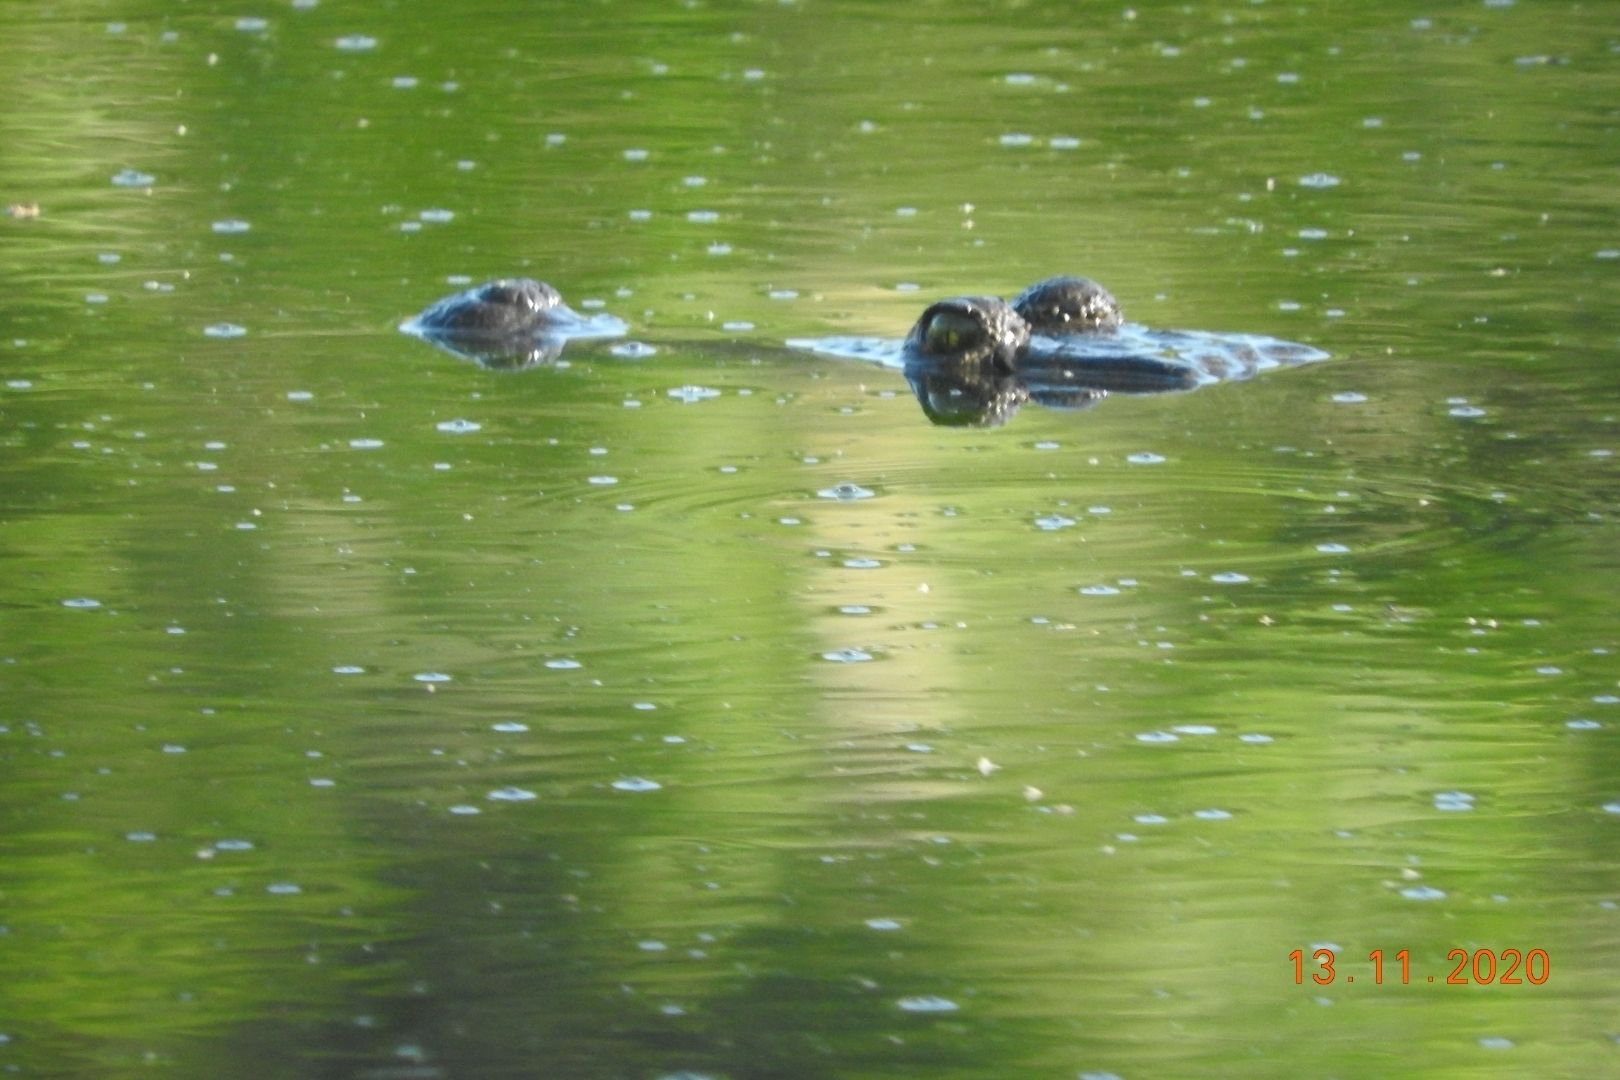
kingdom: Animalia
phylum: Chordata
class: Crocodylia
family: Crocodylidae
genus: Crocodylus
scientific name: Crocodylus moreletii
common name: Morelet's crocodile
